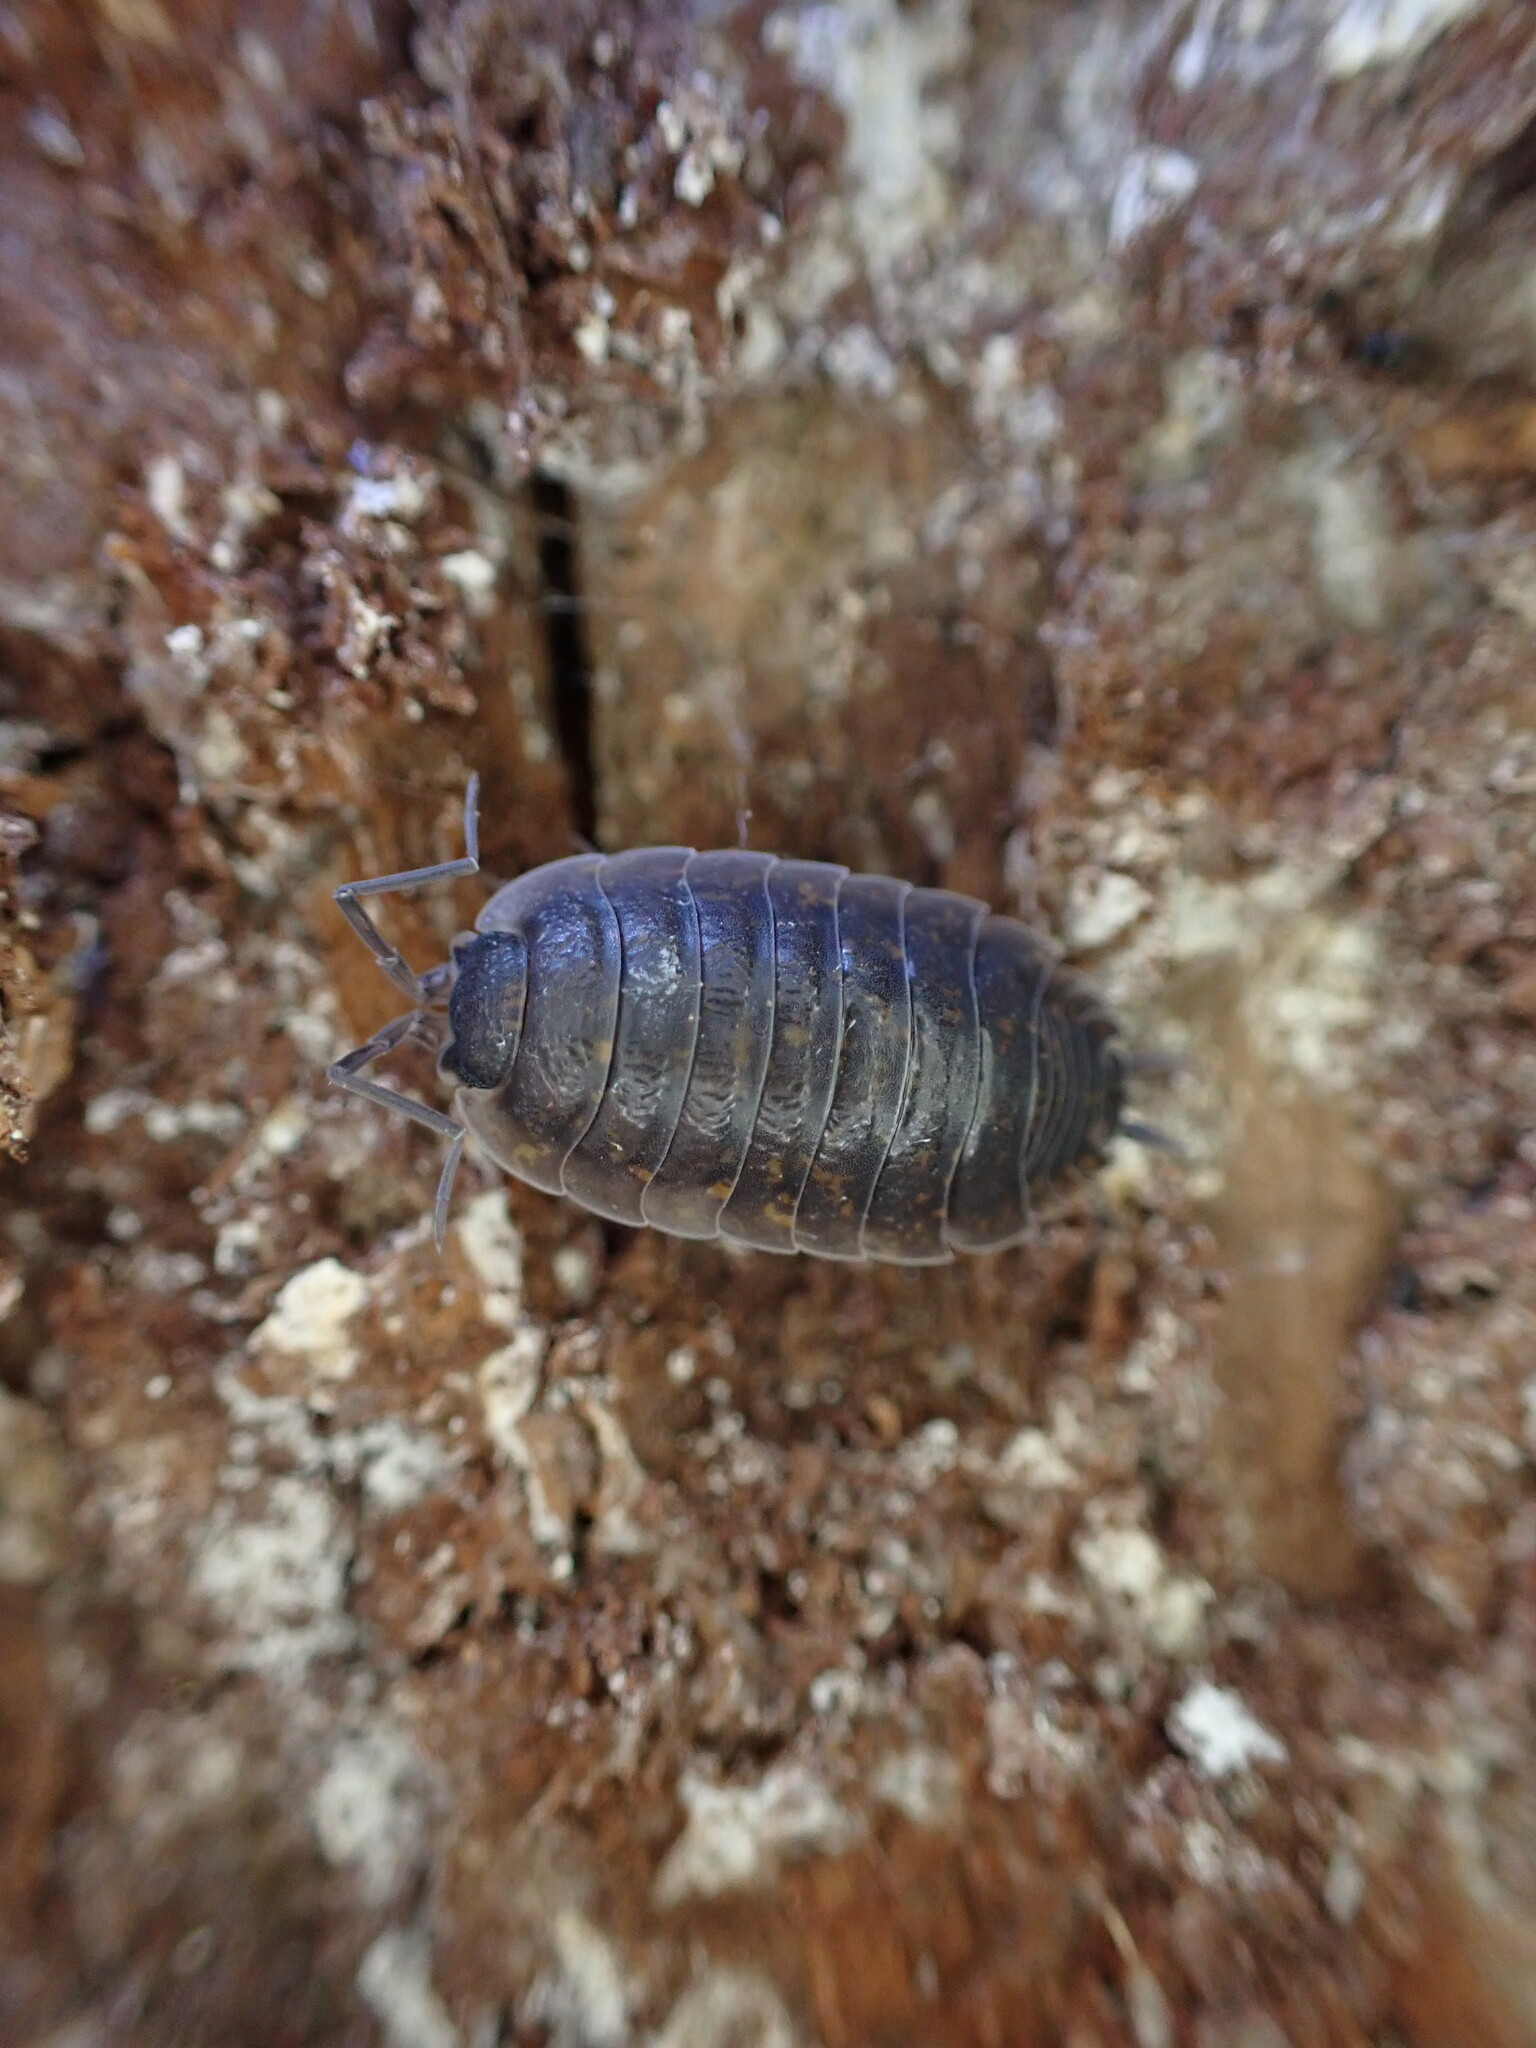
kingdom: Animalia
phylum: Arthropoda
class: Malacostraca
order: Isopoda
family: Porcellionidae
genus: Porcellio
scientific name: Porcellio orarum
